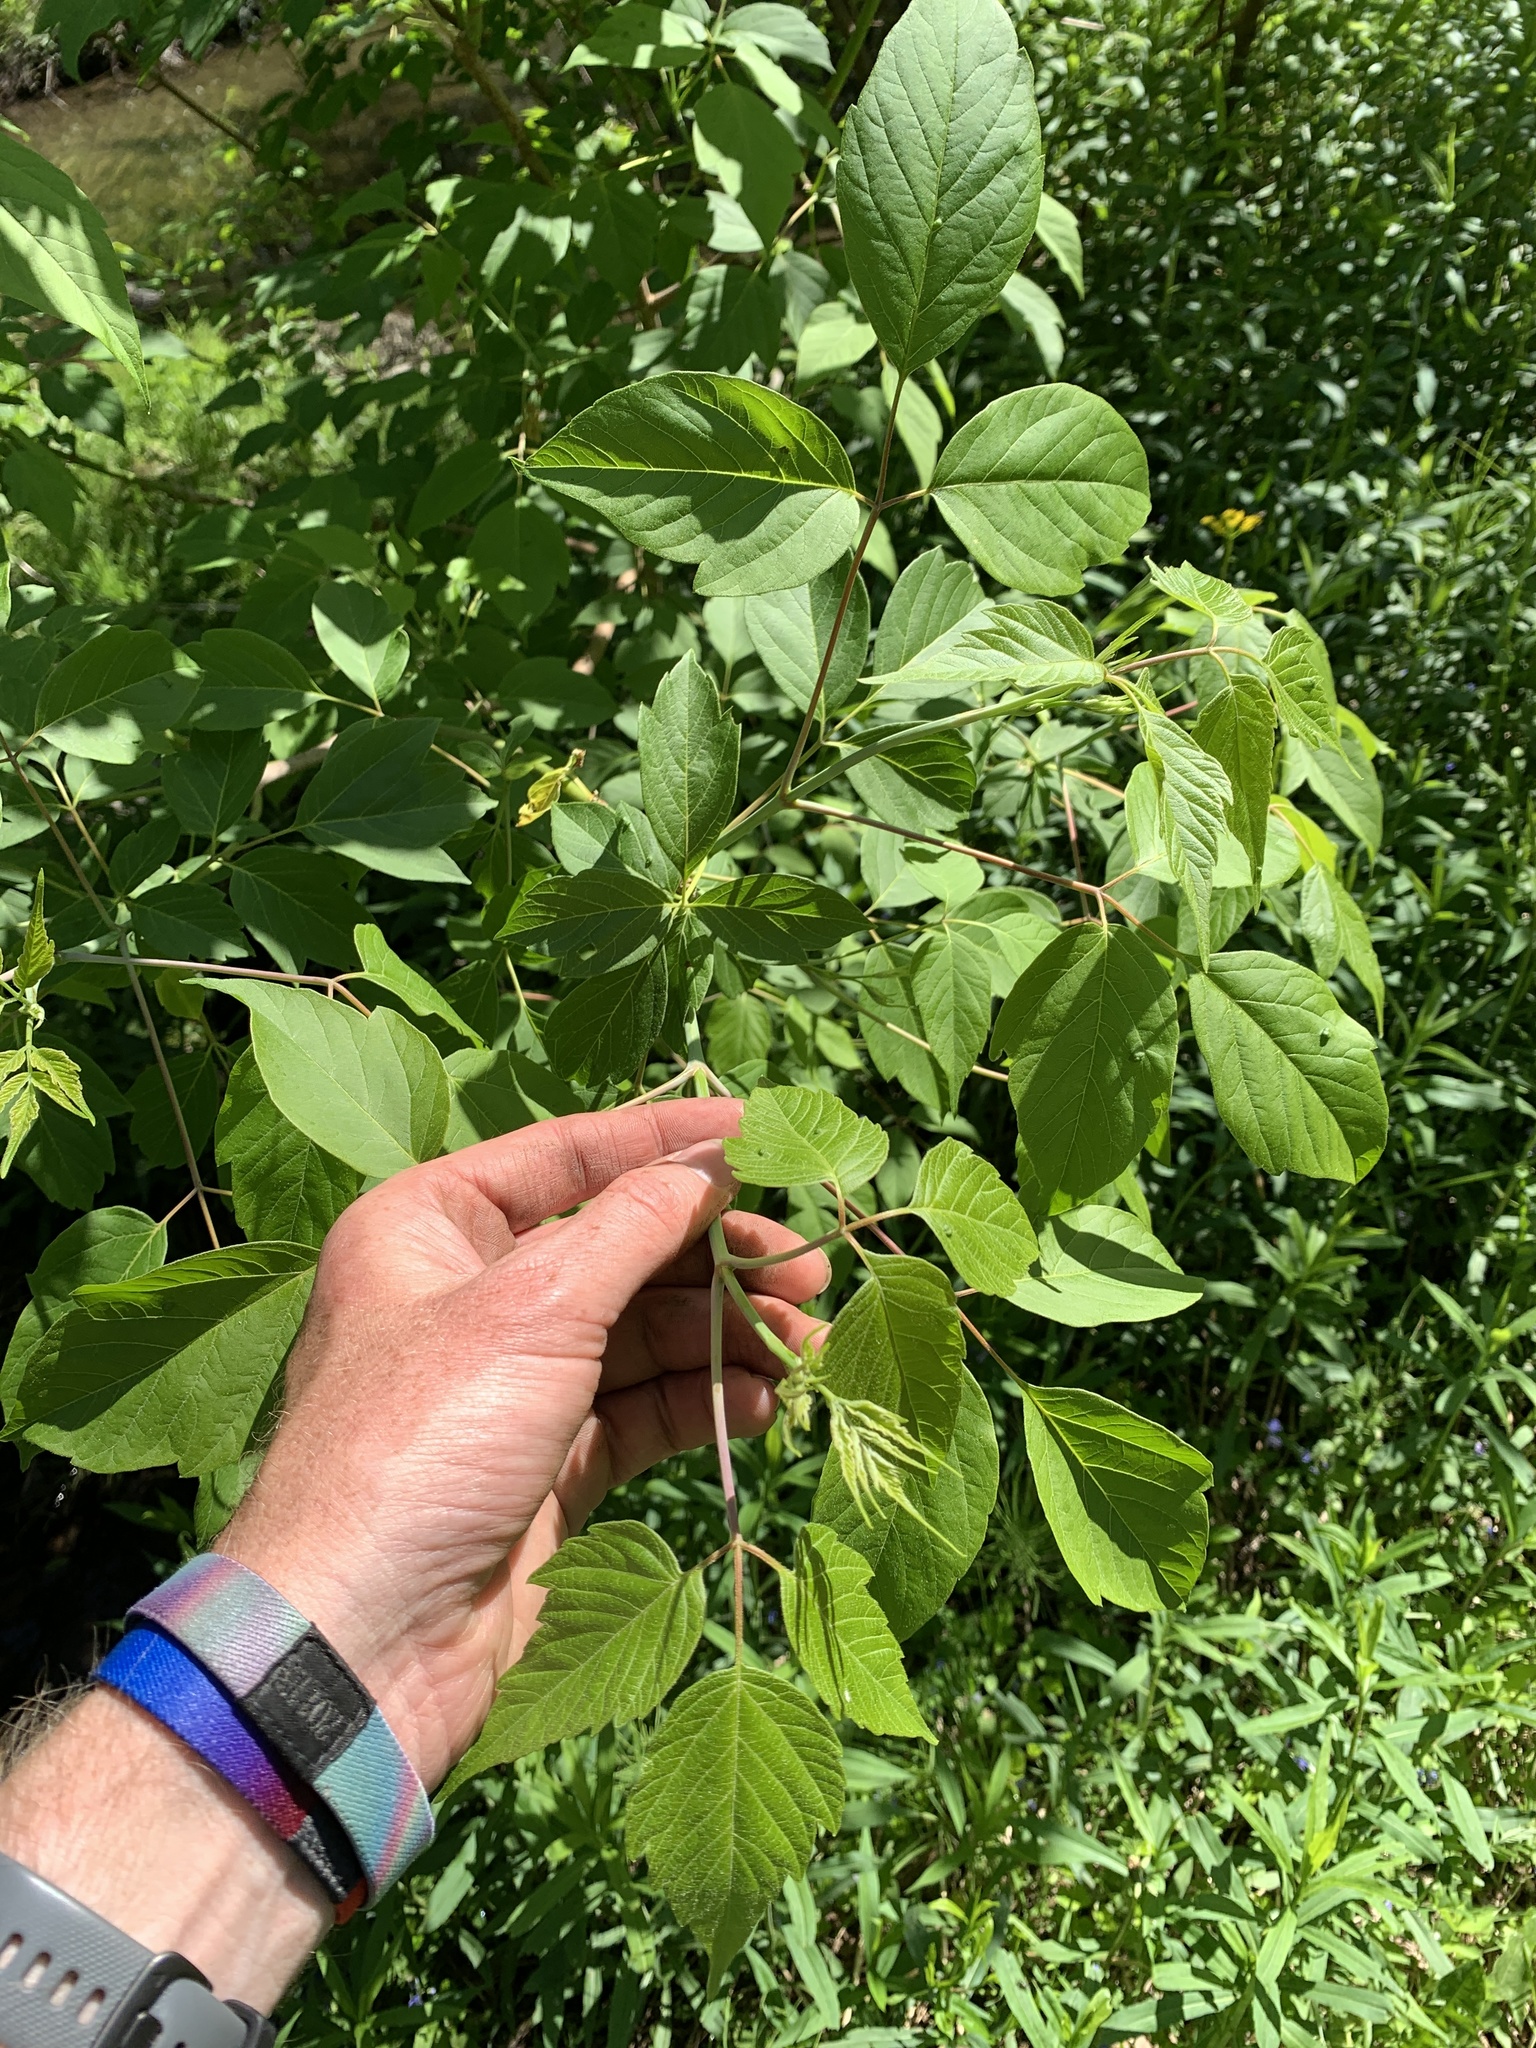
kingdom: Plantae
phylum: Tracheophyta
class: Magnoliopsida
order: Sapindales
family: Sapindaceae
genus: Acer
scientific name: Acer negundo
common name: Ashleaf maple
